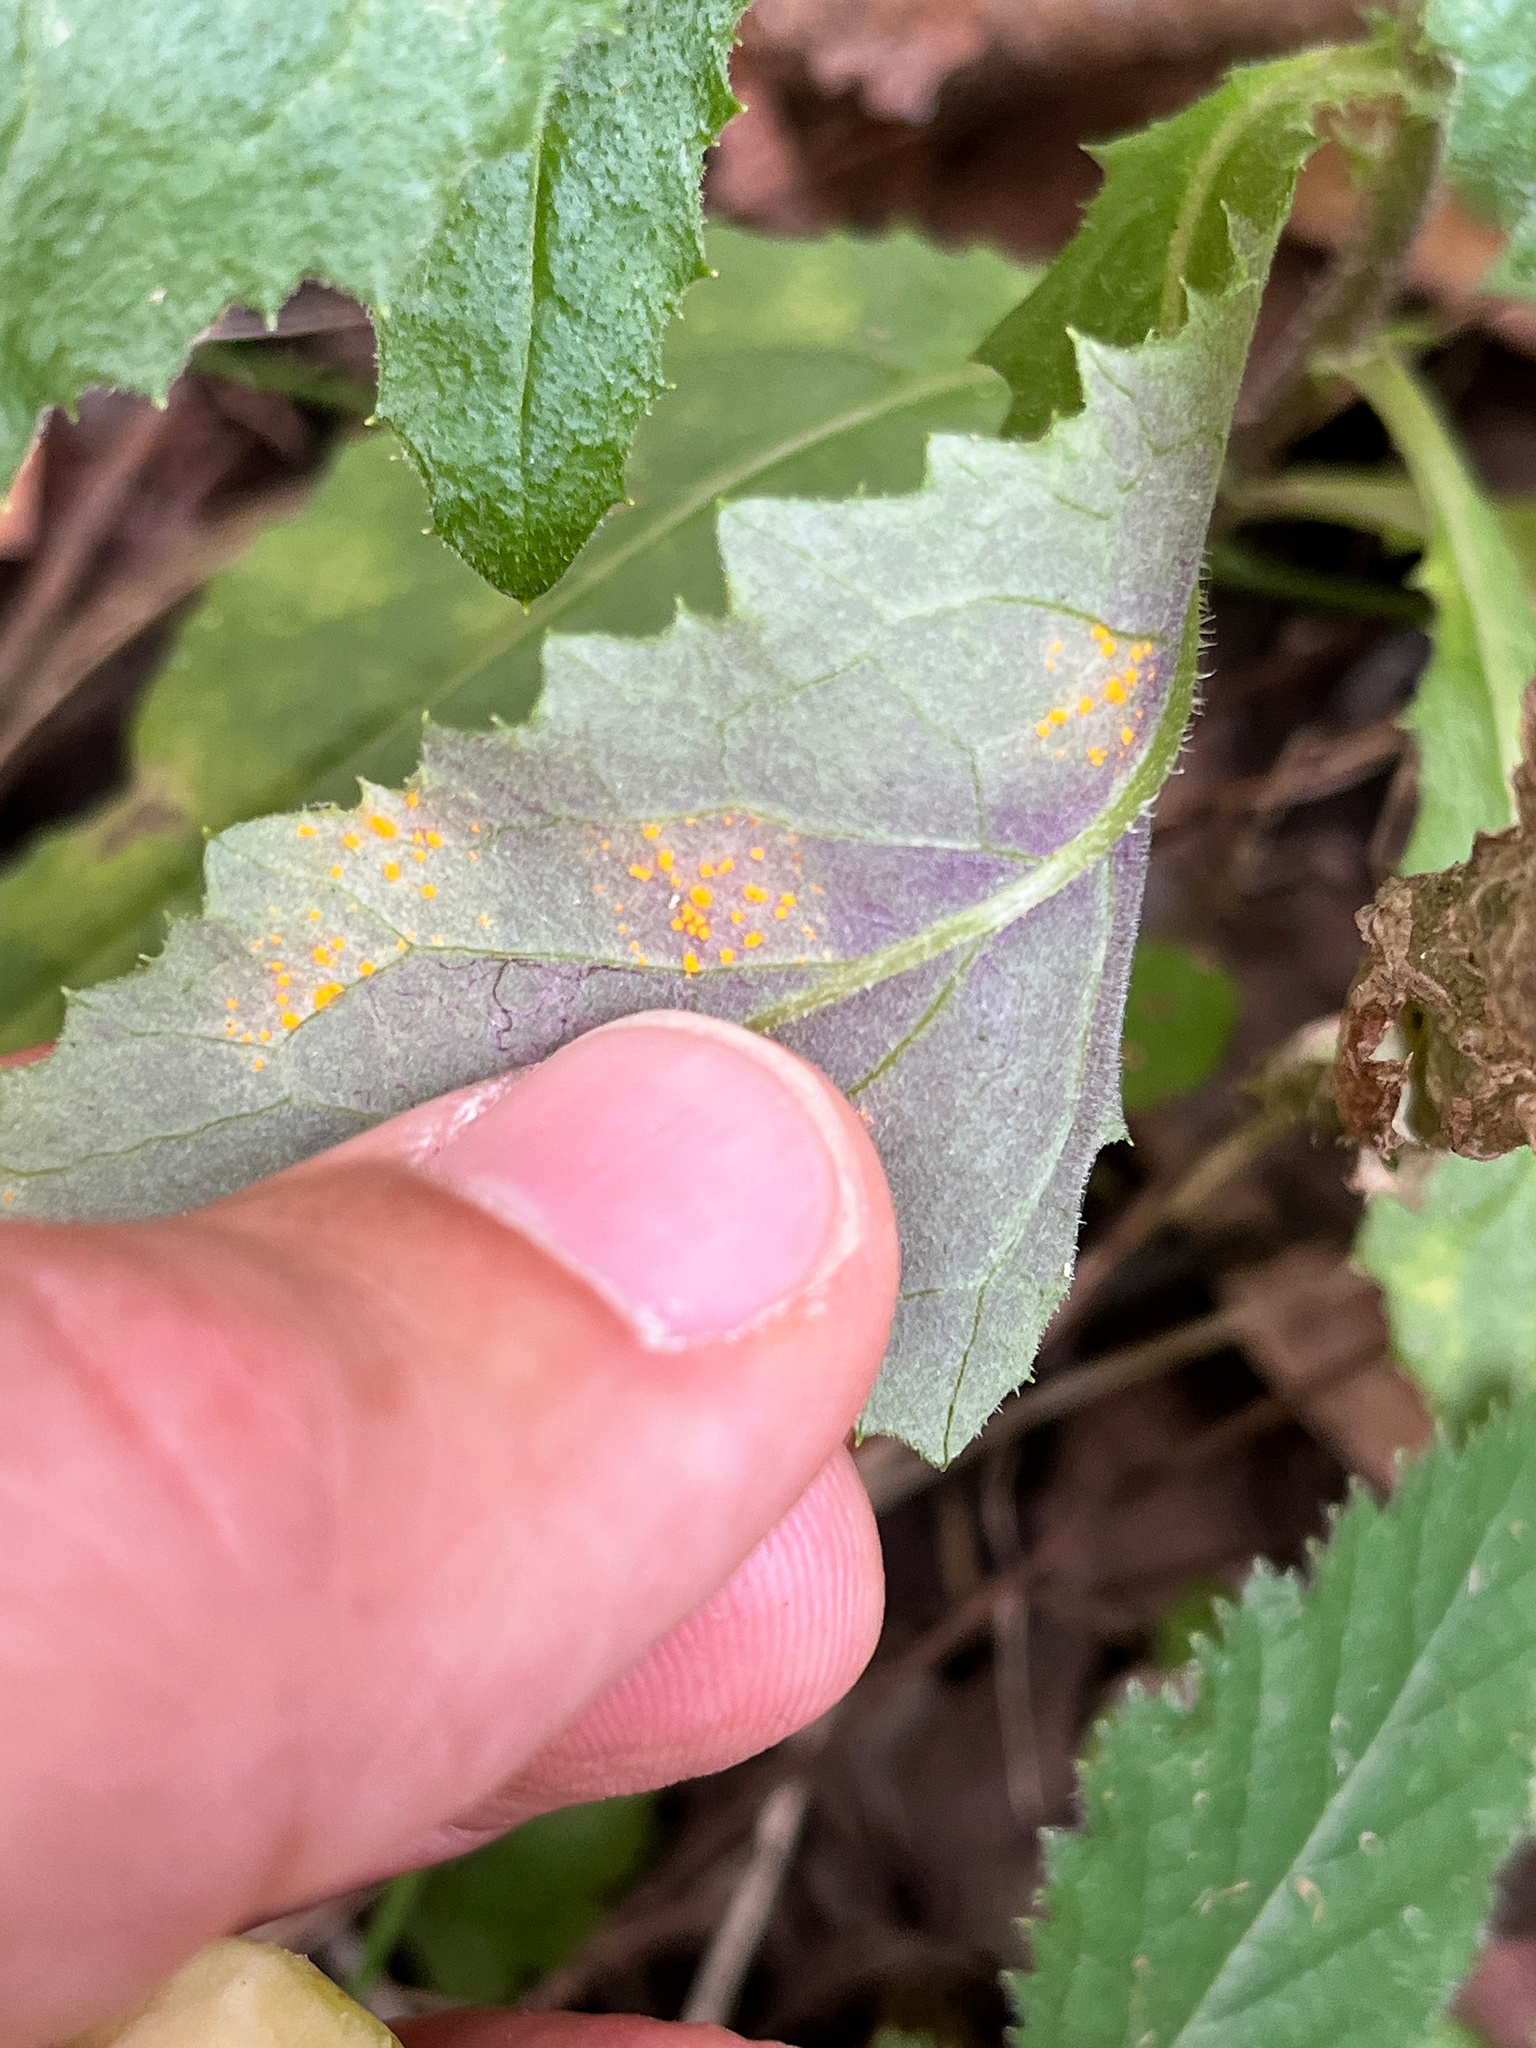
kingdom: Fungi
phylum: Basidiomycota
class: Pucciniomycetes
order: Pucciniales
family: Coleosporiaceae
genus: Coleosporium
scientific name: Coleosporium tussilaginis
